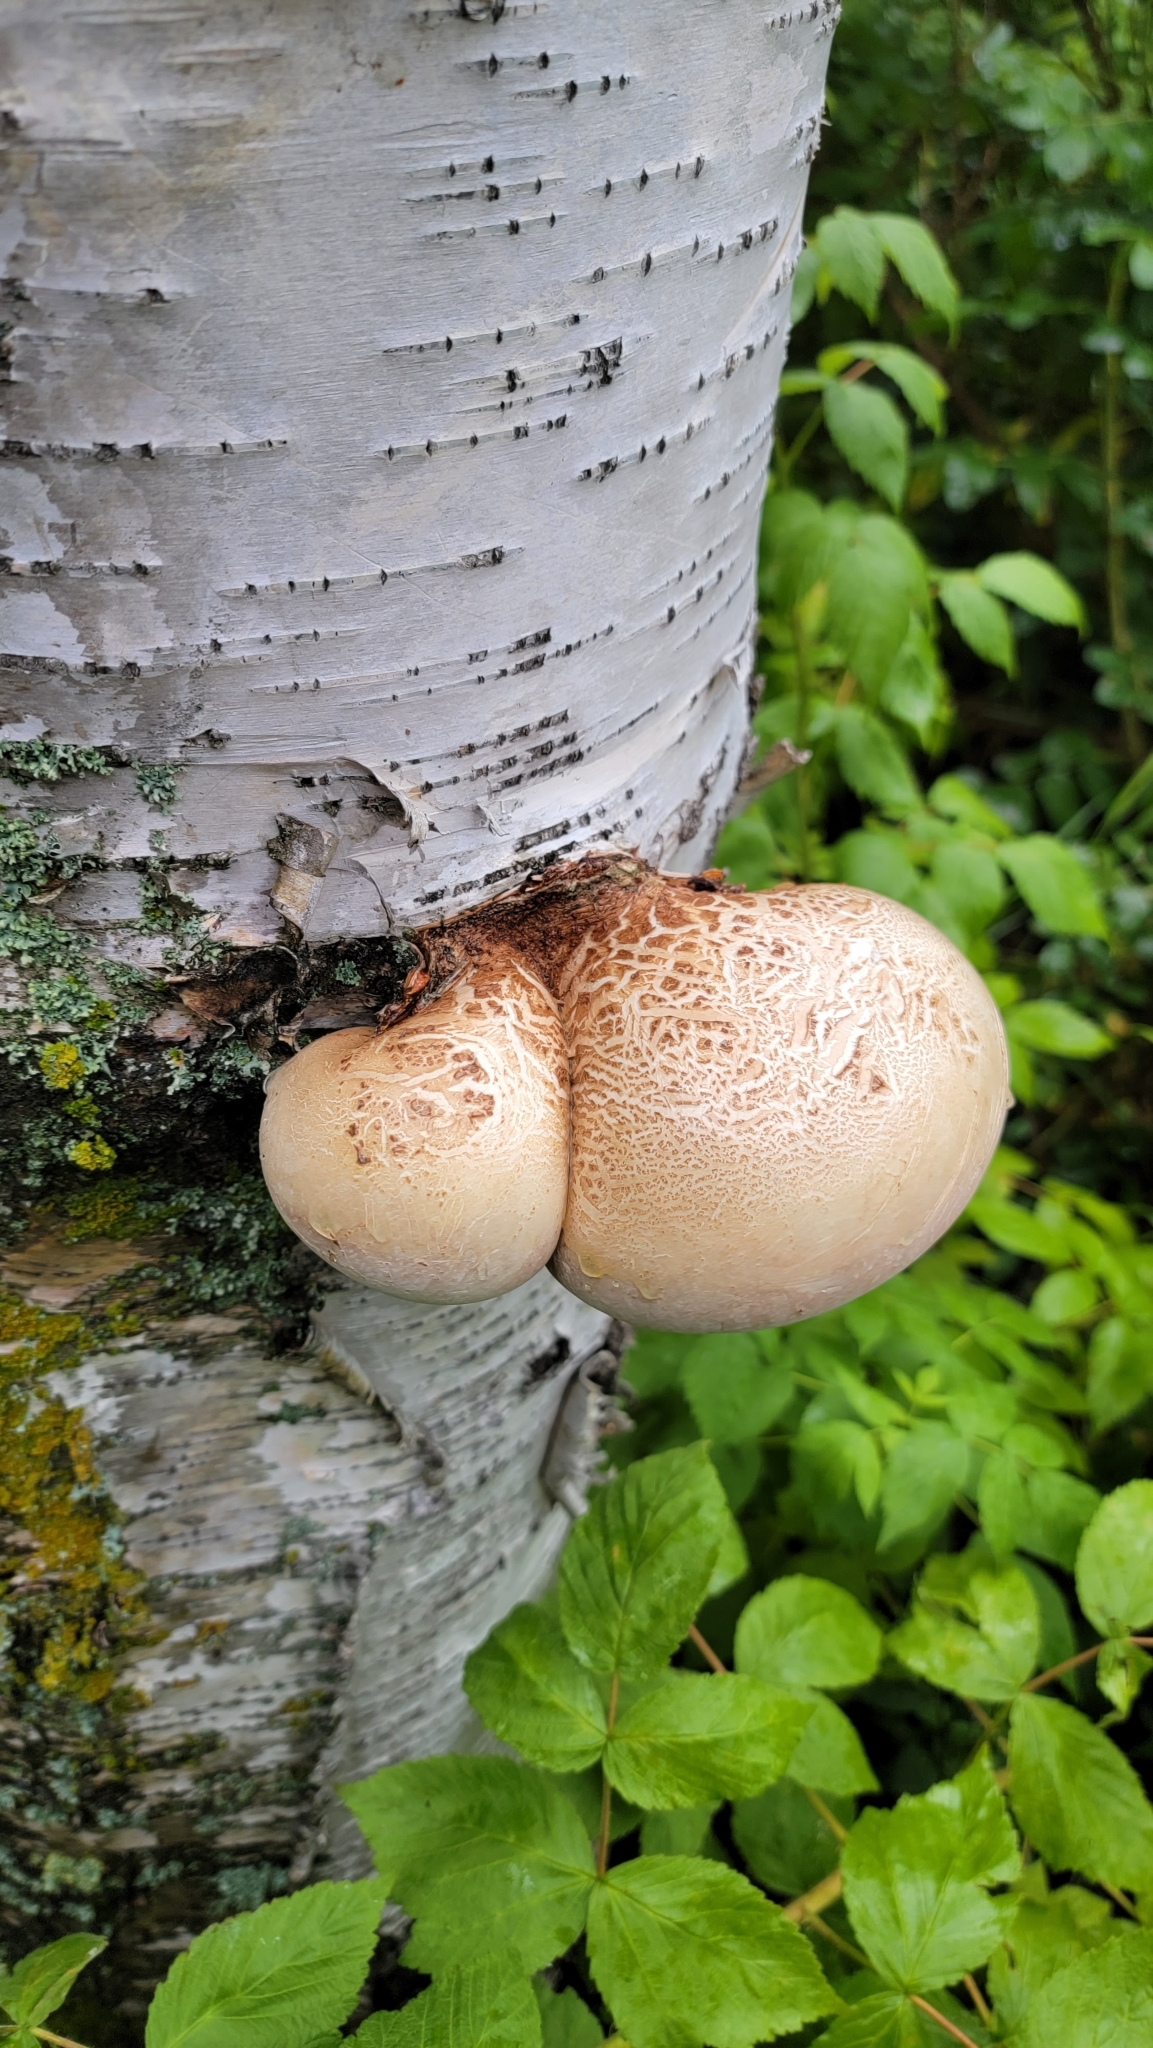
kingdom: Fungi
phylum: Basidiomycota
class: Agaricomycetes
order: Polyporales
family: Fomitopsidaceae
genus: Fomitopsis
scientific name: Fomitopsis betulina
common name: Birch polypore
